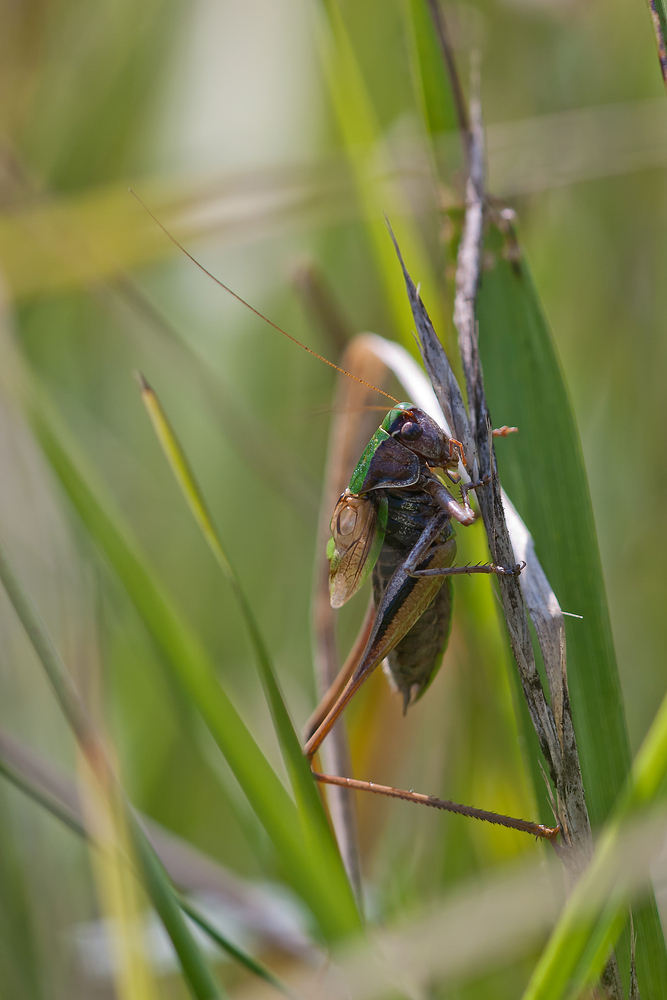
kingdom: Animalia
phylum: Arthropoda
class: Insecta
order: Orthoptera
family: Tettigoniidae
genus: Metrioptera
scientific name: Metrioptera brachyptera
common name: Bog bush-cricket
